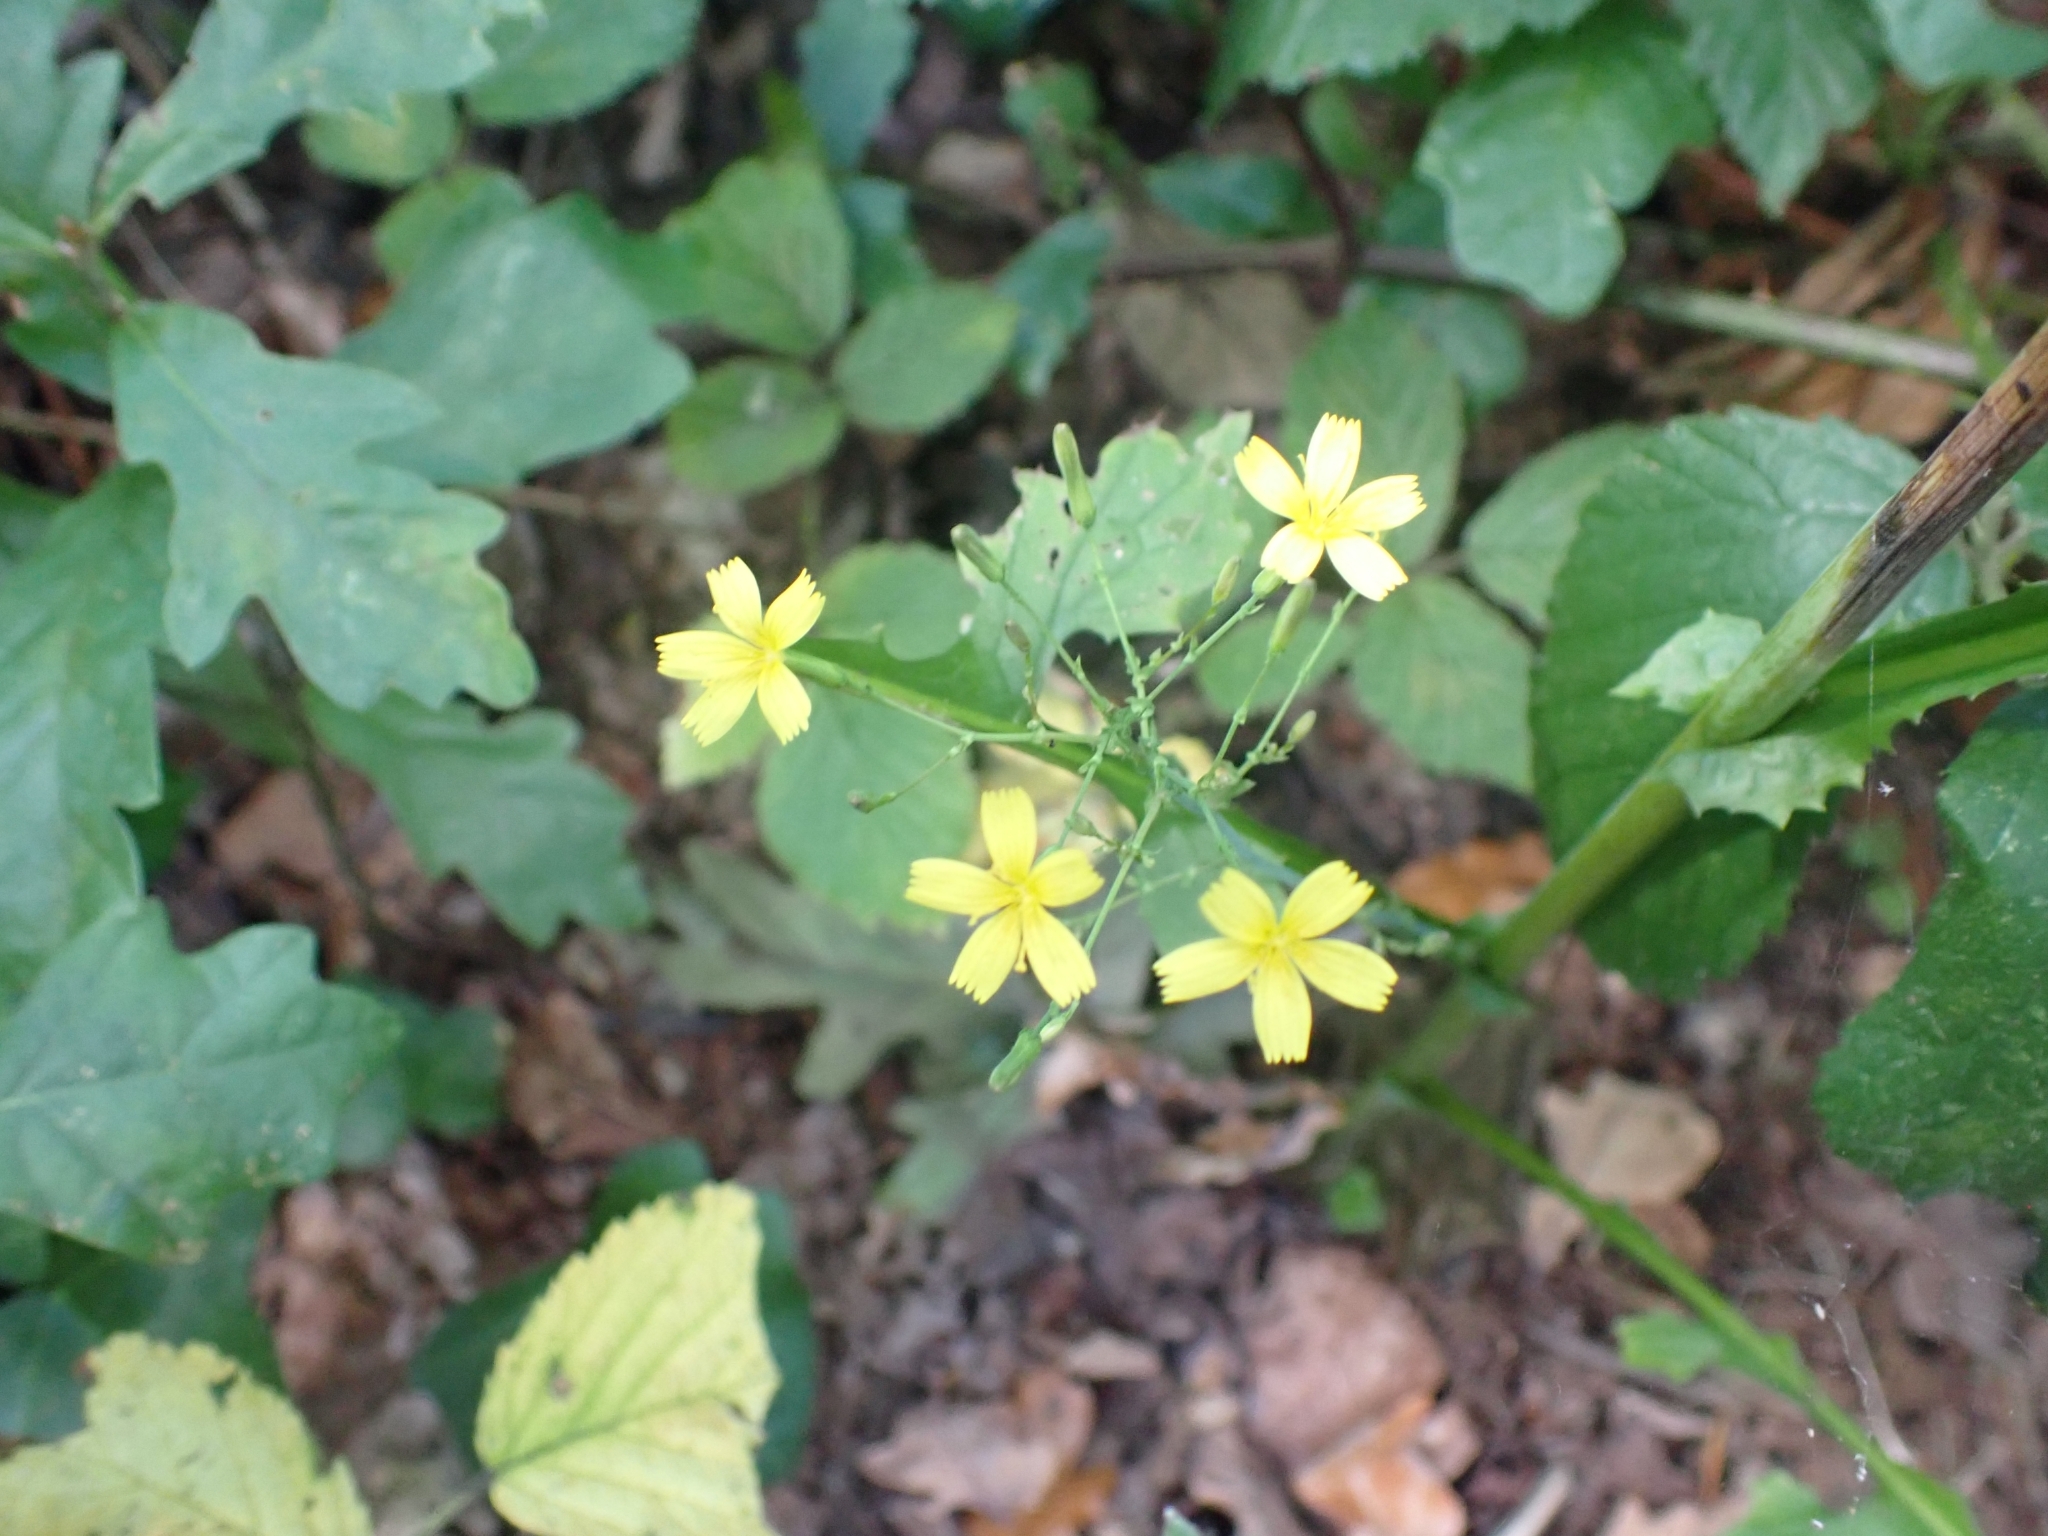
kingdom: Plantae
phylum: Tracheophyta
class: Magnoliopsida
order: Asterales
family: Asteraceae
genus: Mycelis
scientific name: Mycelis muralis
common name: Wall lettuce
